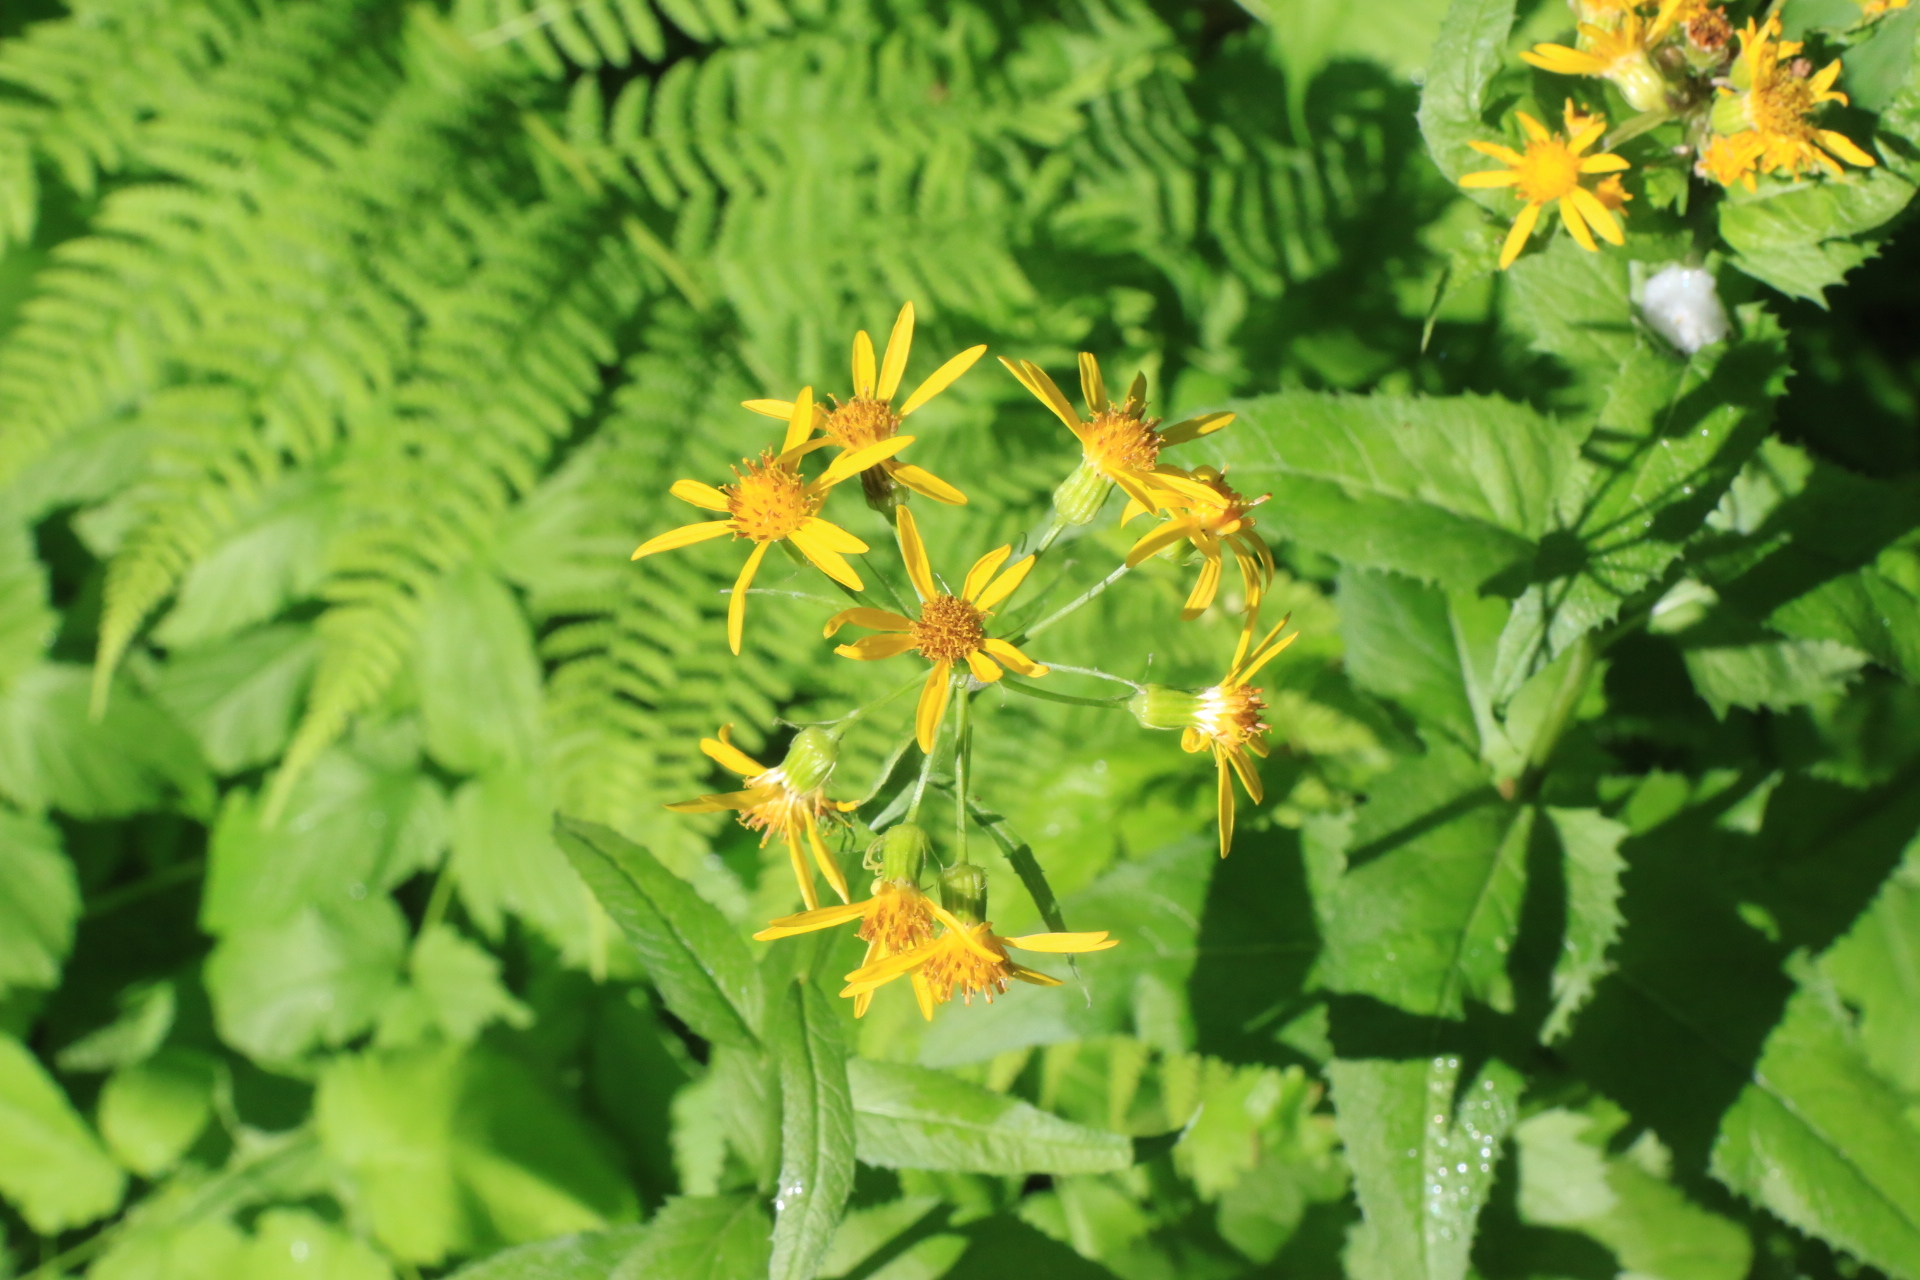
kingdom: Plantae
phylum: Tracheophyta
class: Magnoliopsida
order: Asterales
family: Asteraceae
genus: Senecio
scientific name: Senecio triangularis
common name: Arrowleaf butterweed
